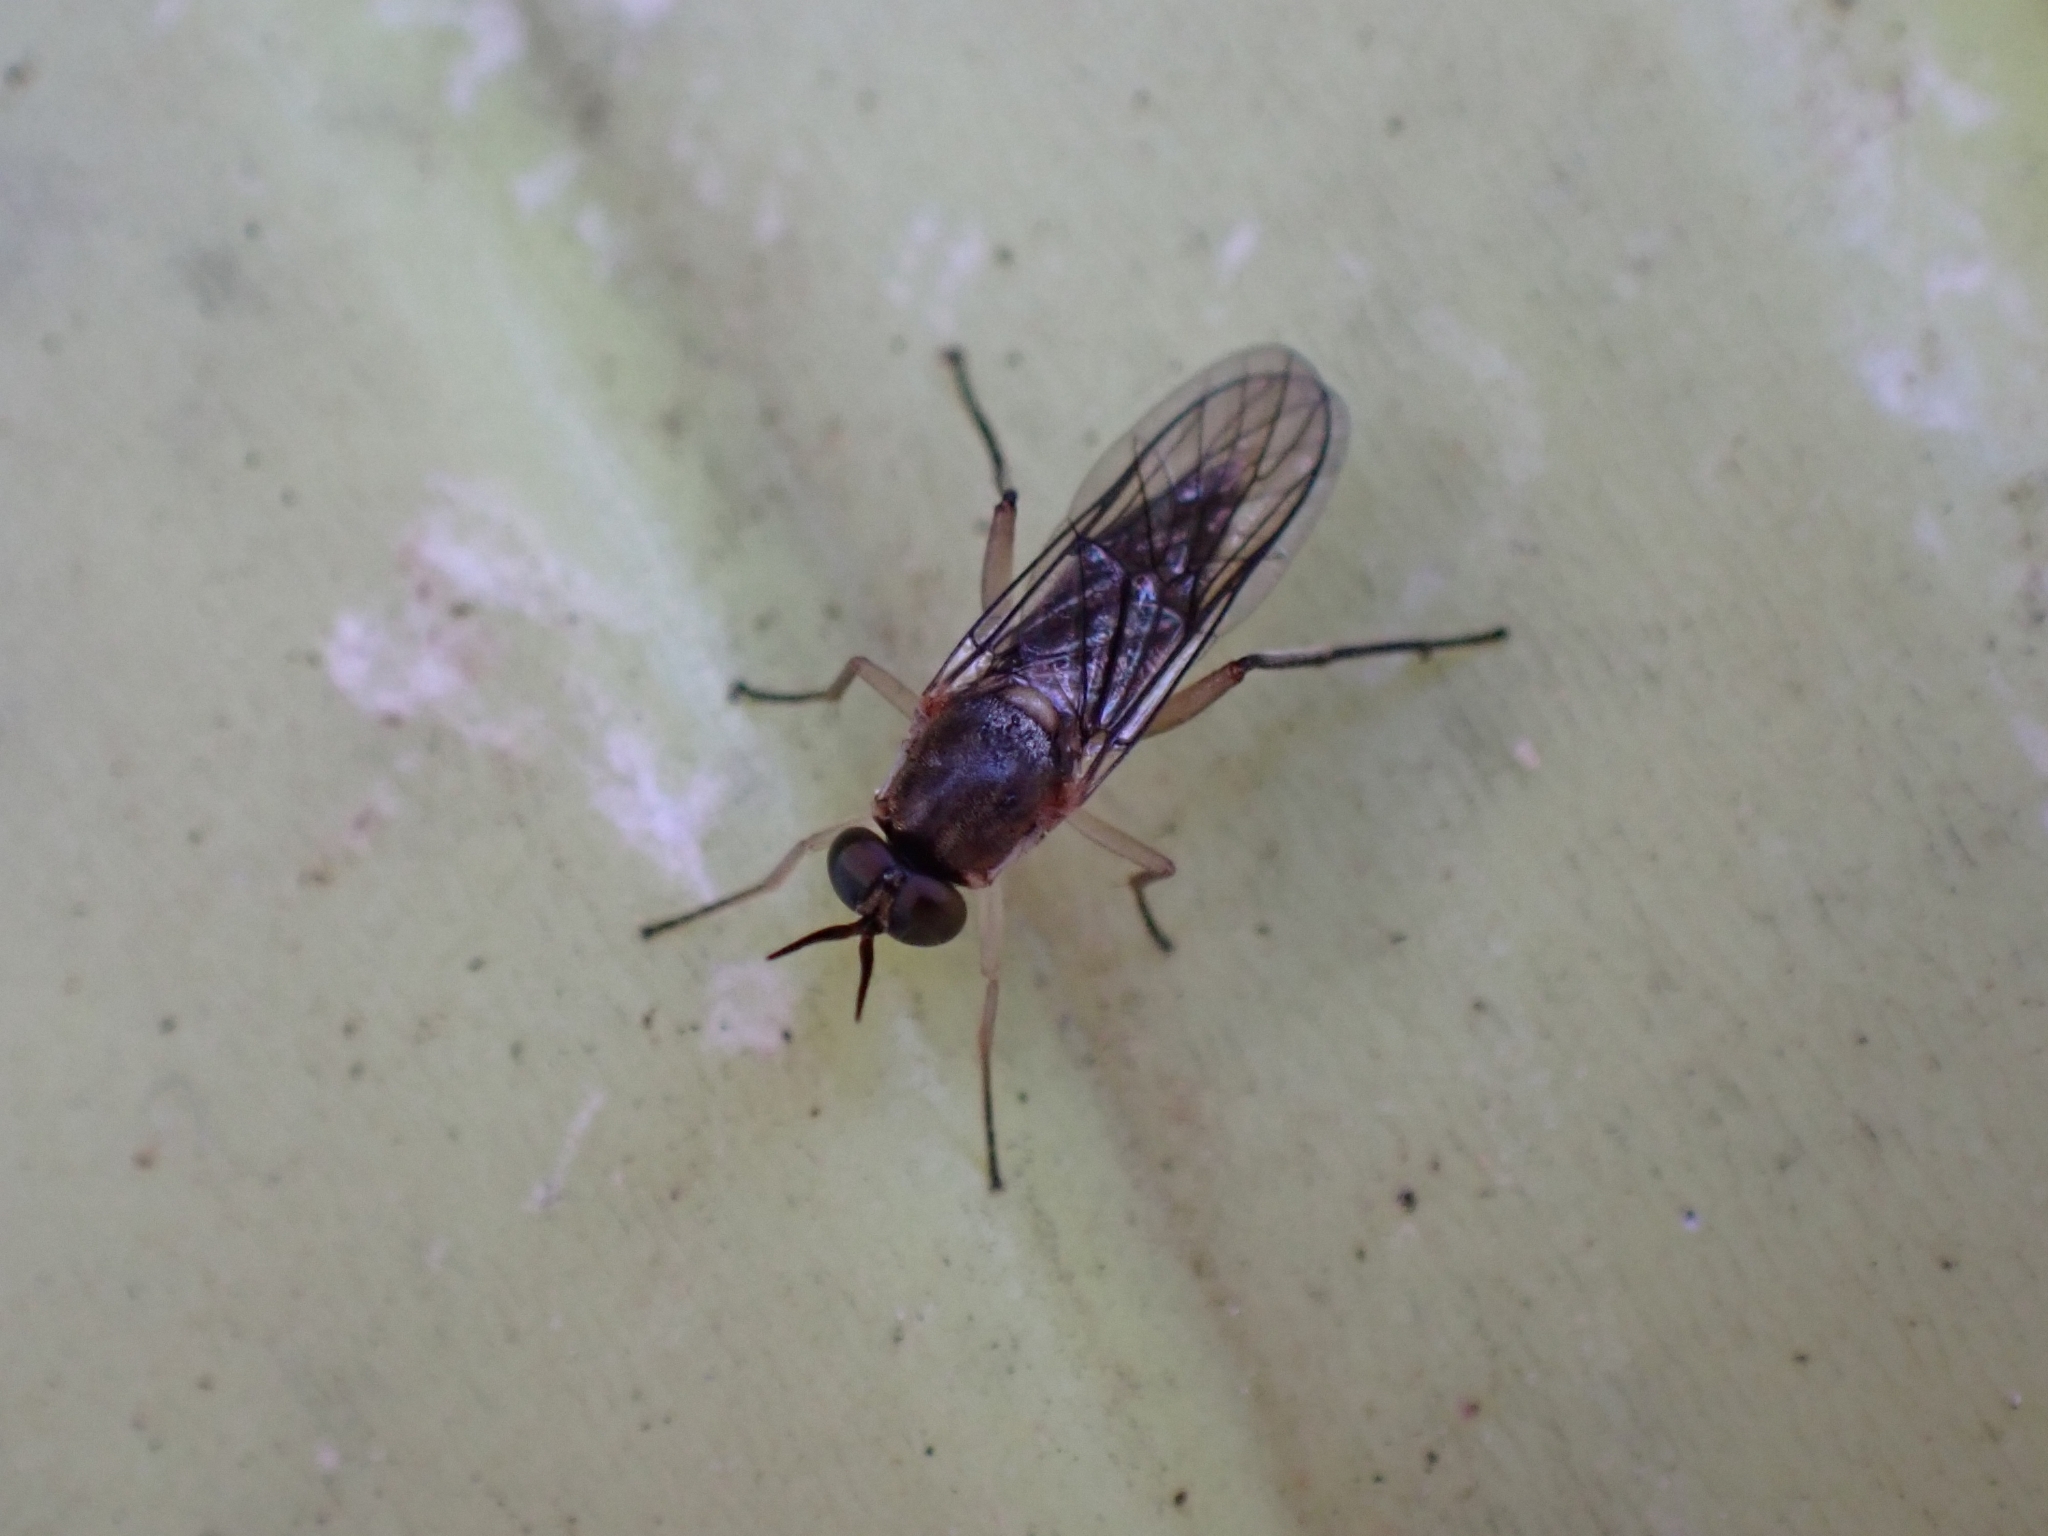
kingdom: Animalia
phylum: Arthropoda
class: Insecta
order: Diptera
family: Xylomyidae
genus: Solva
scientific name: Solva nigritibialis
